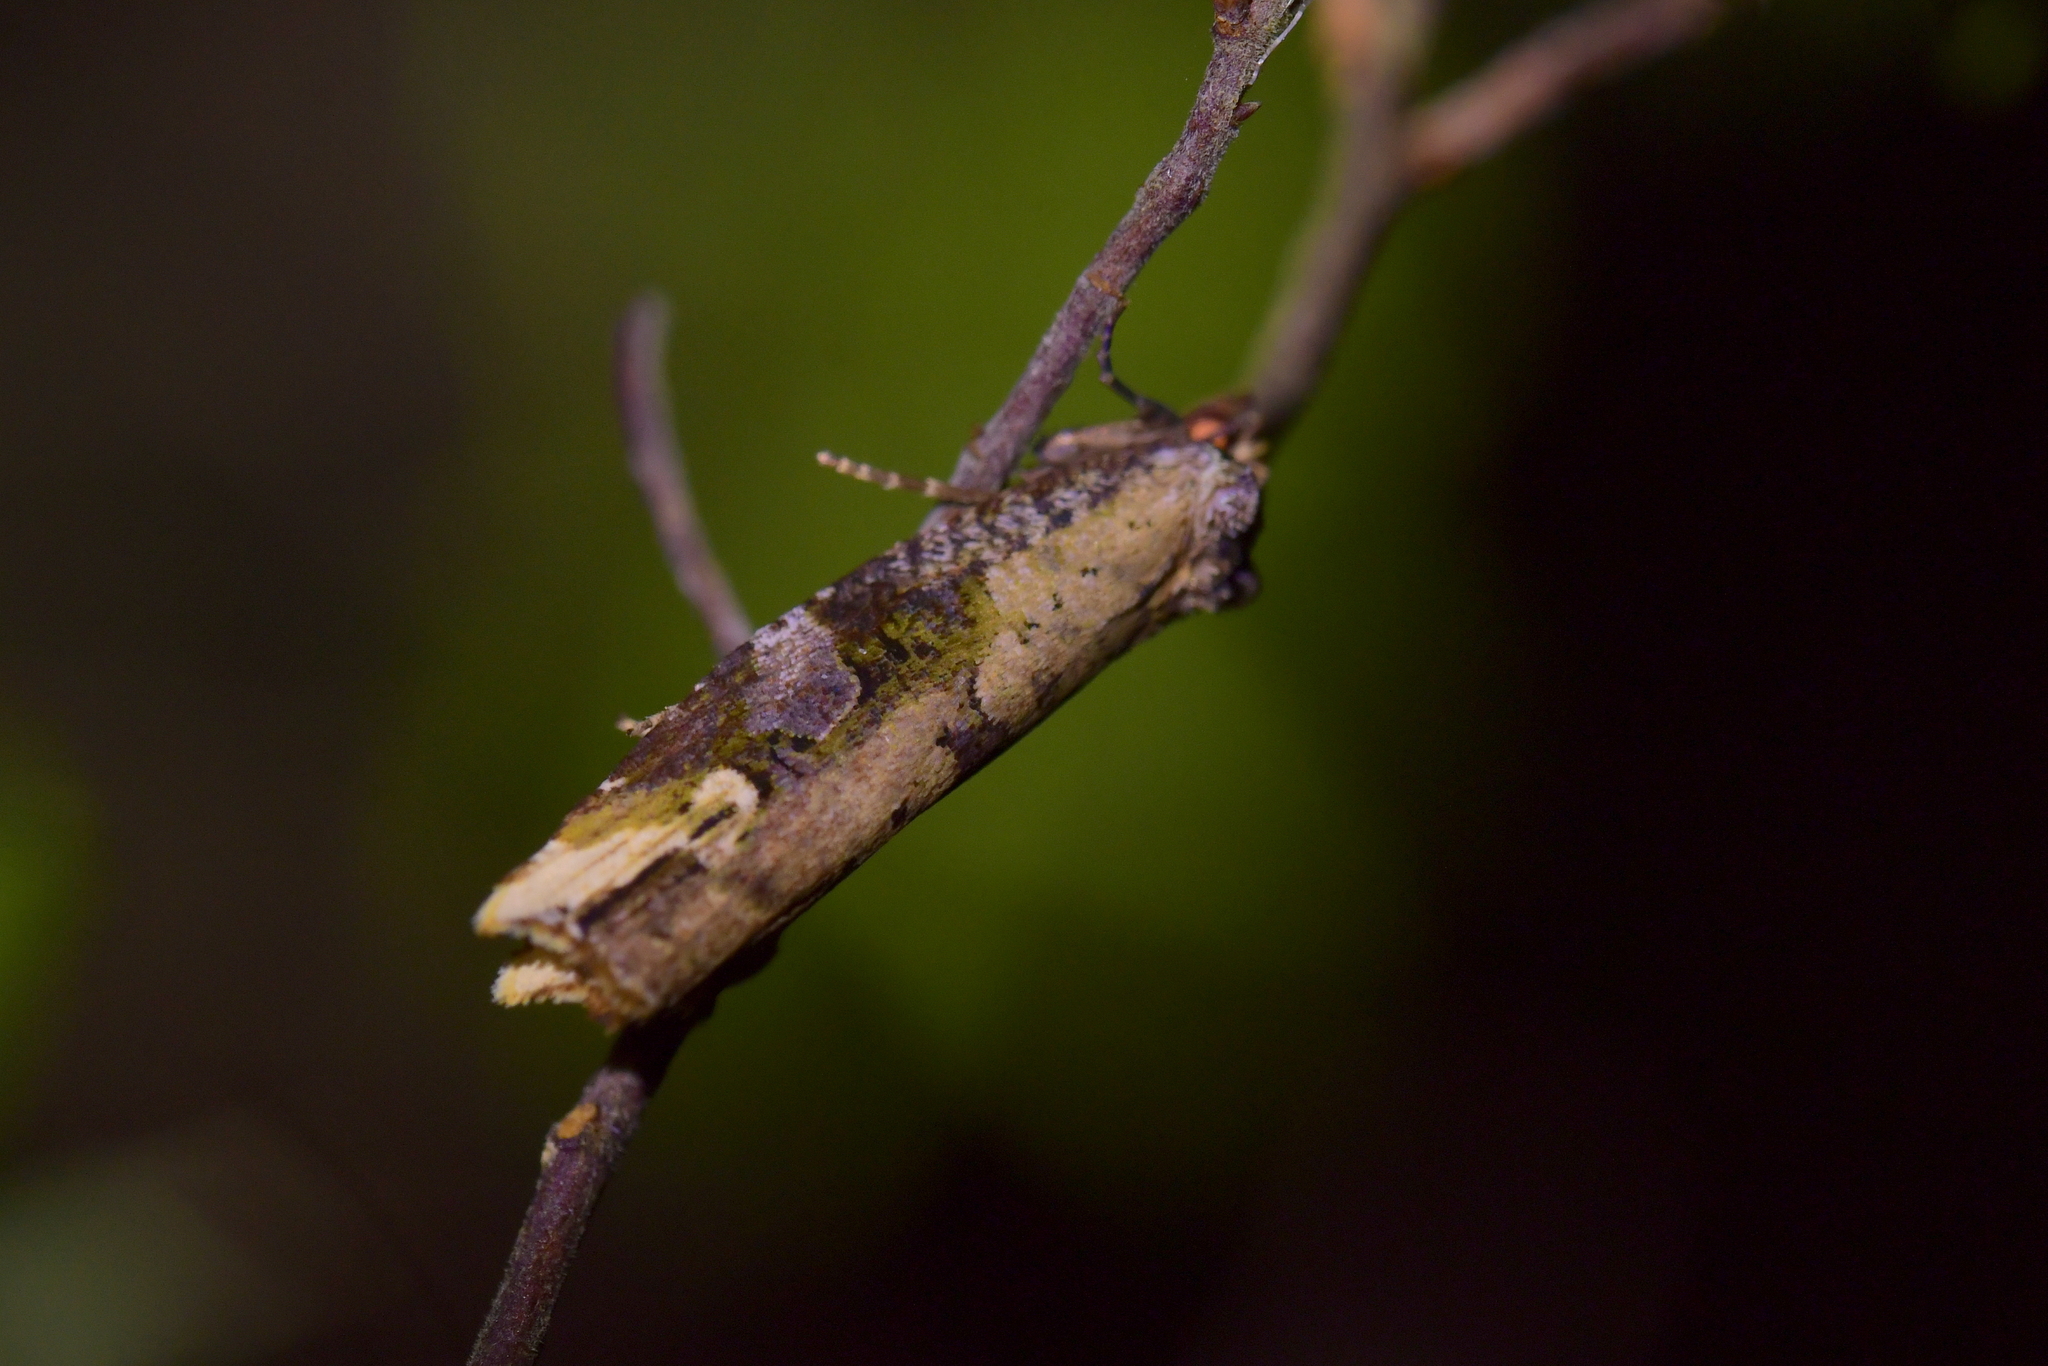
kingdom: Animalia
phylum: Arthropoda
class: Insecta
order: Lepidoptera
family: Tortricidae
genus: Epalxiphora
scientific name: Epalxiphora axenana
